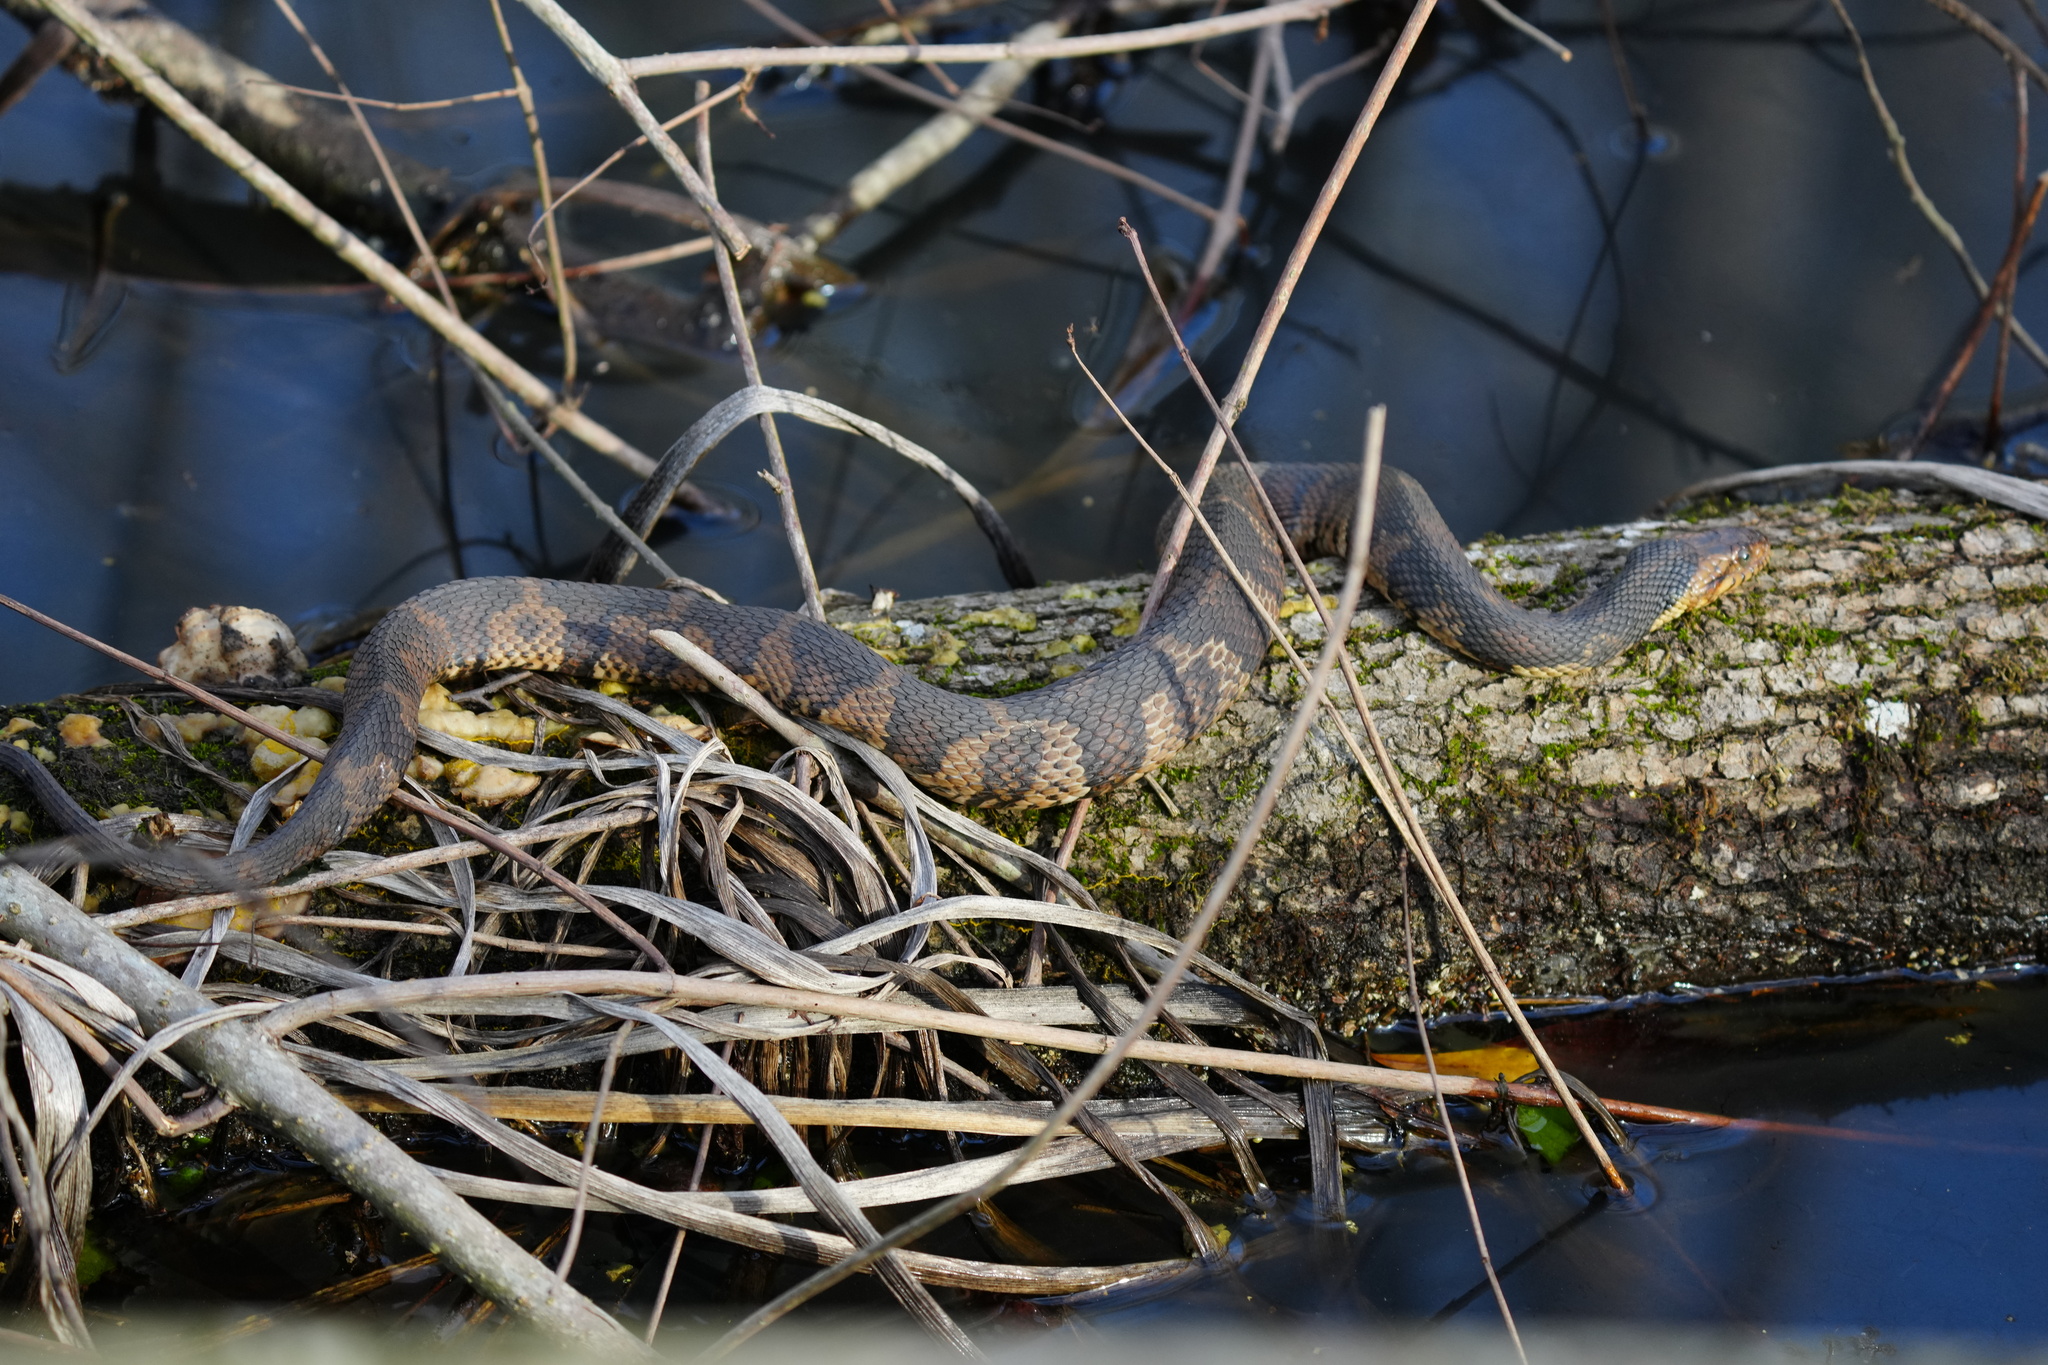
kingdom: Animalia
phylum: Chordata
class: Squamata
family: Colubridae
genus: Nerodia
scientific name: Nerodia fasciata
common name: Southern water snake
